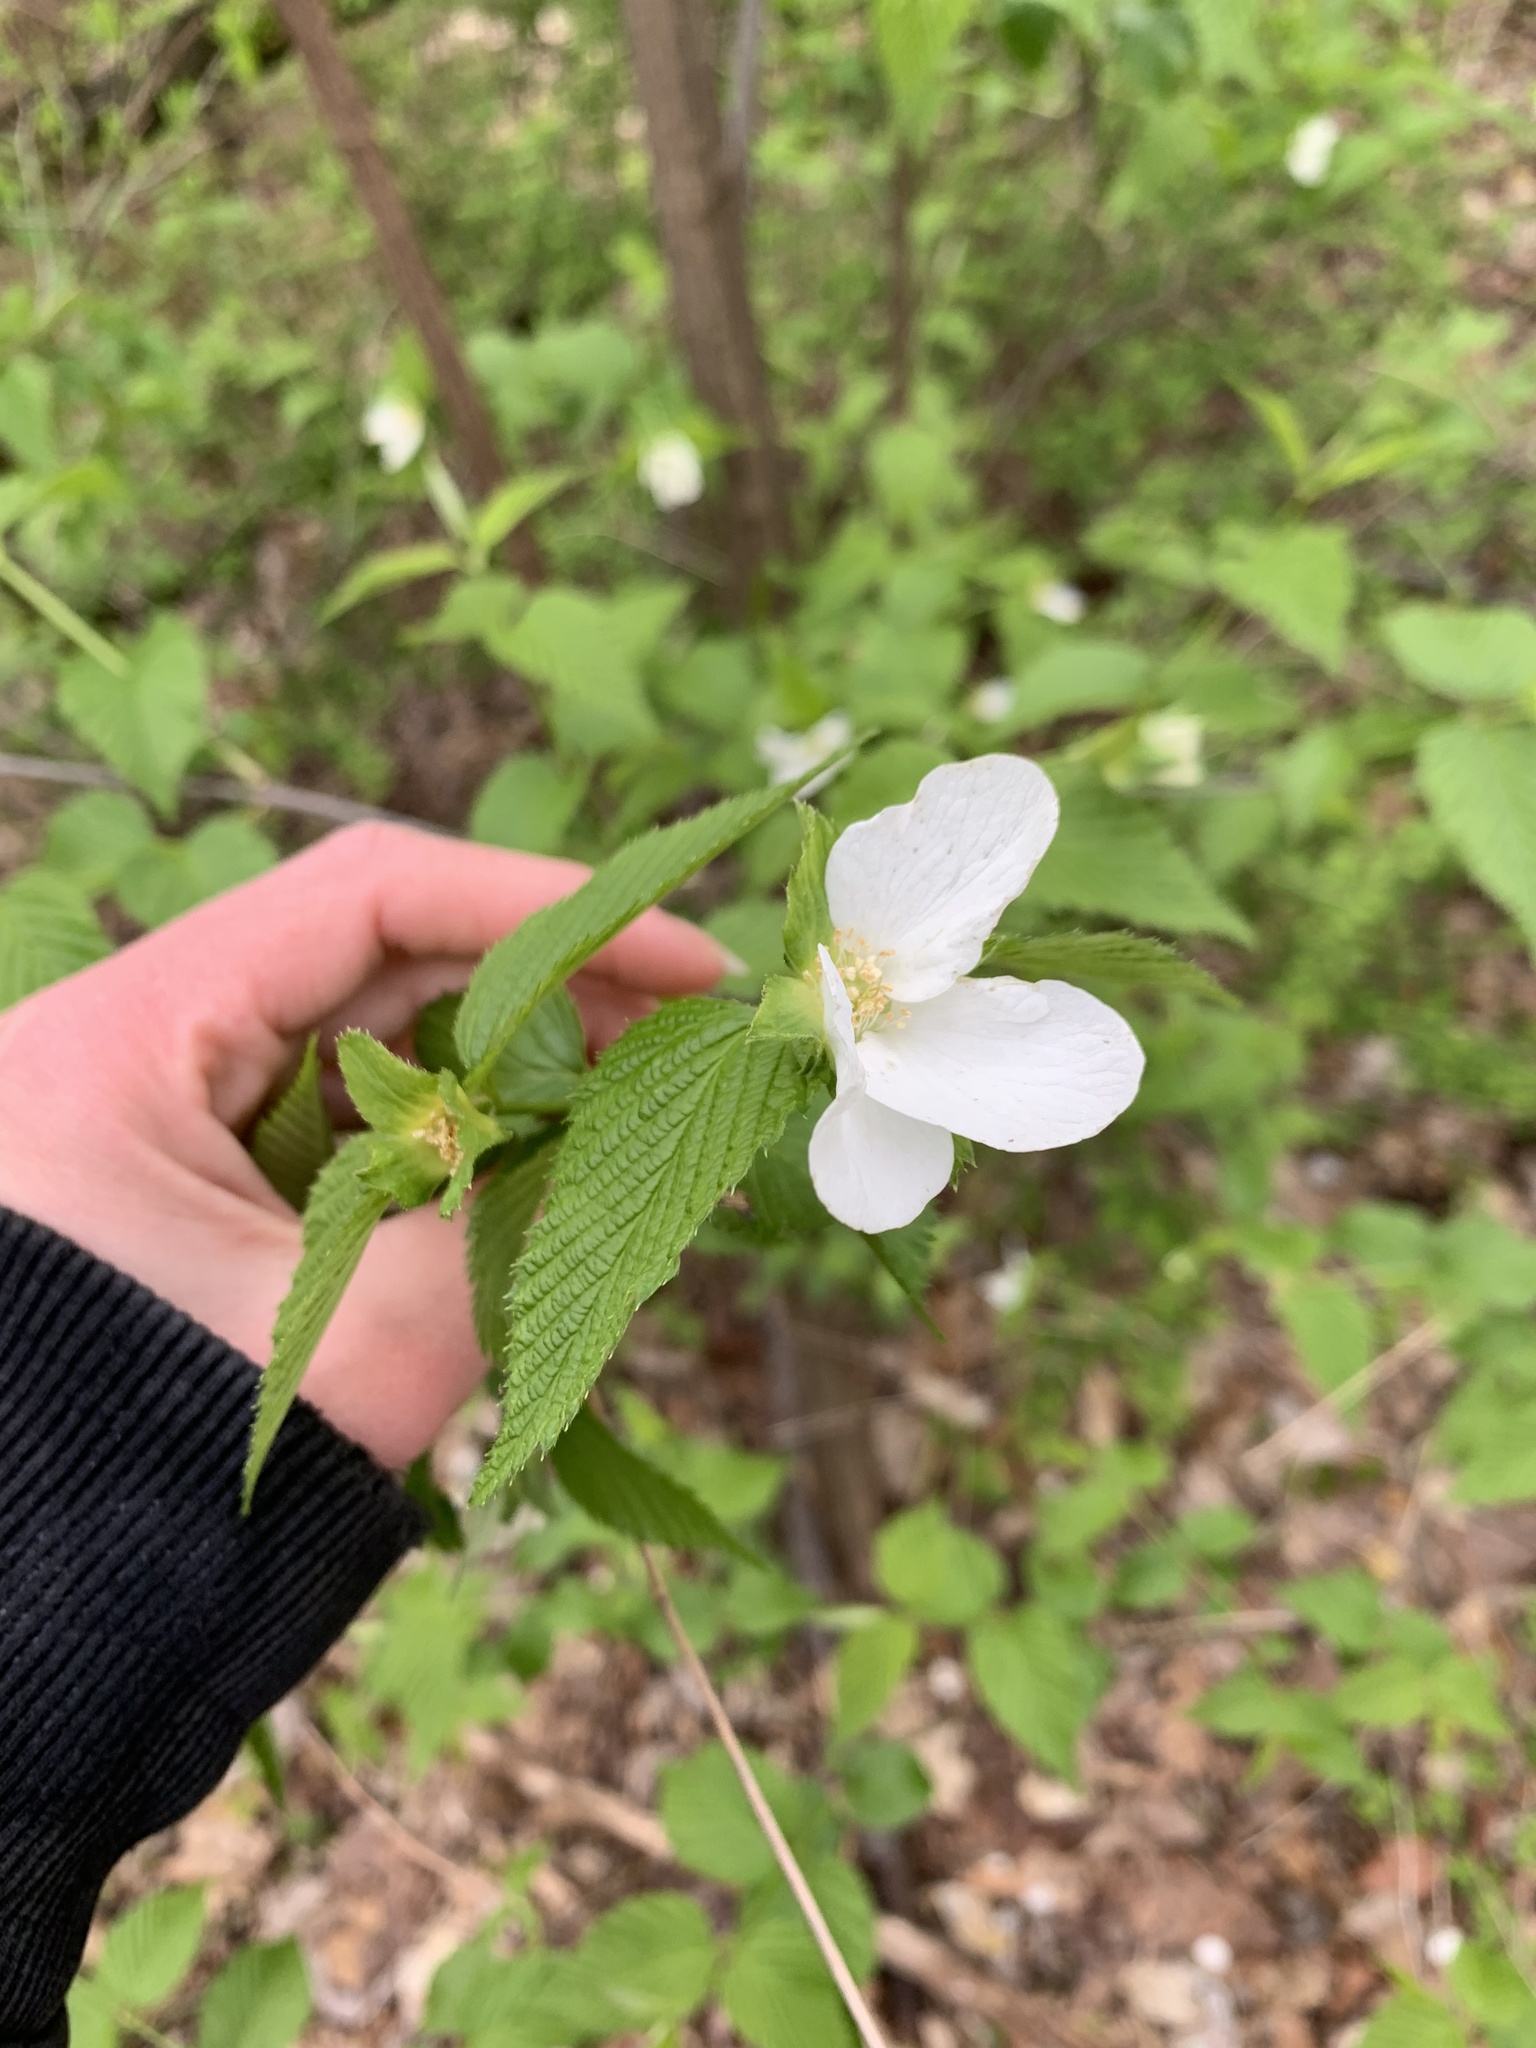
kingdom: Plantae
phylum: Tracheophyta
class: Magnoliopsida
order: Rosales
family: Rosaceae
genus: Rhodotypos
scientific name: Rhodotypos scandens
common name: Jetbead
